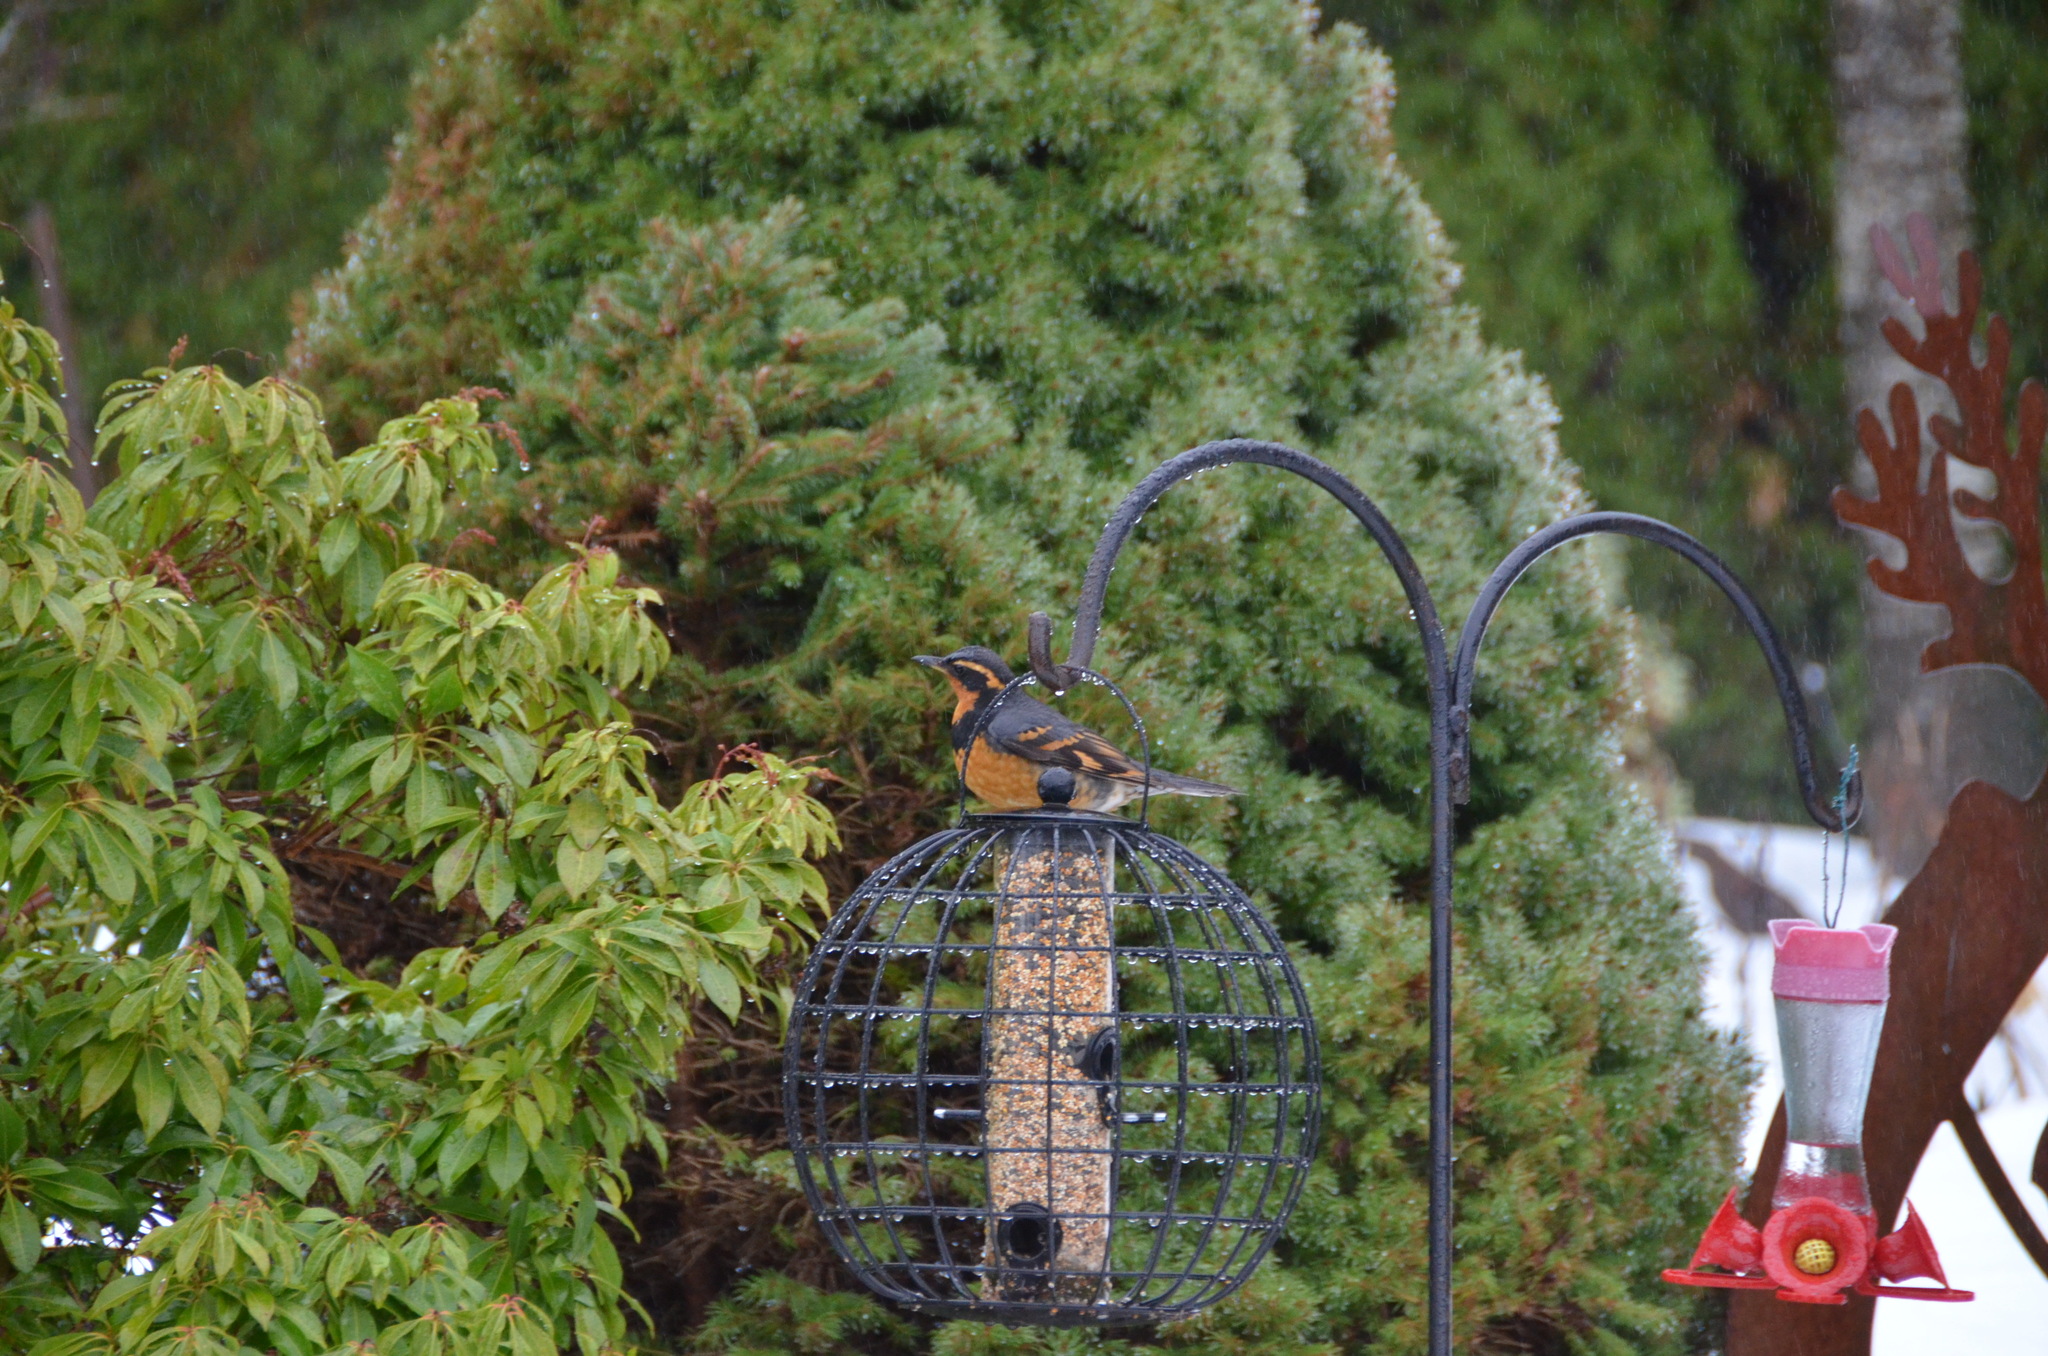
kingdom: Animalia
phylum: Chordata
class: Aves
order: Passeriformes
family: Turdidae
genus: Ixoreus
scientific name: Ixoreus naevius
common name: Varied thrush
